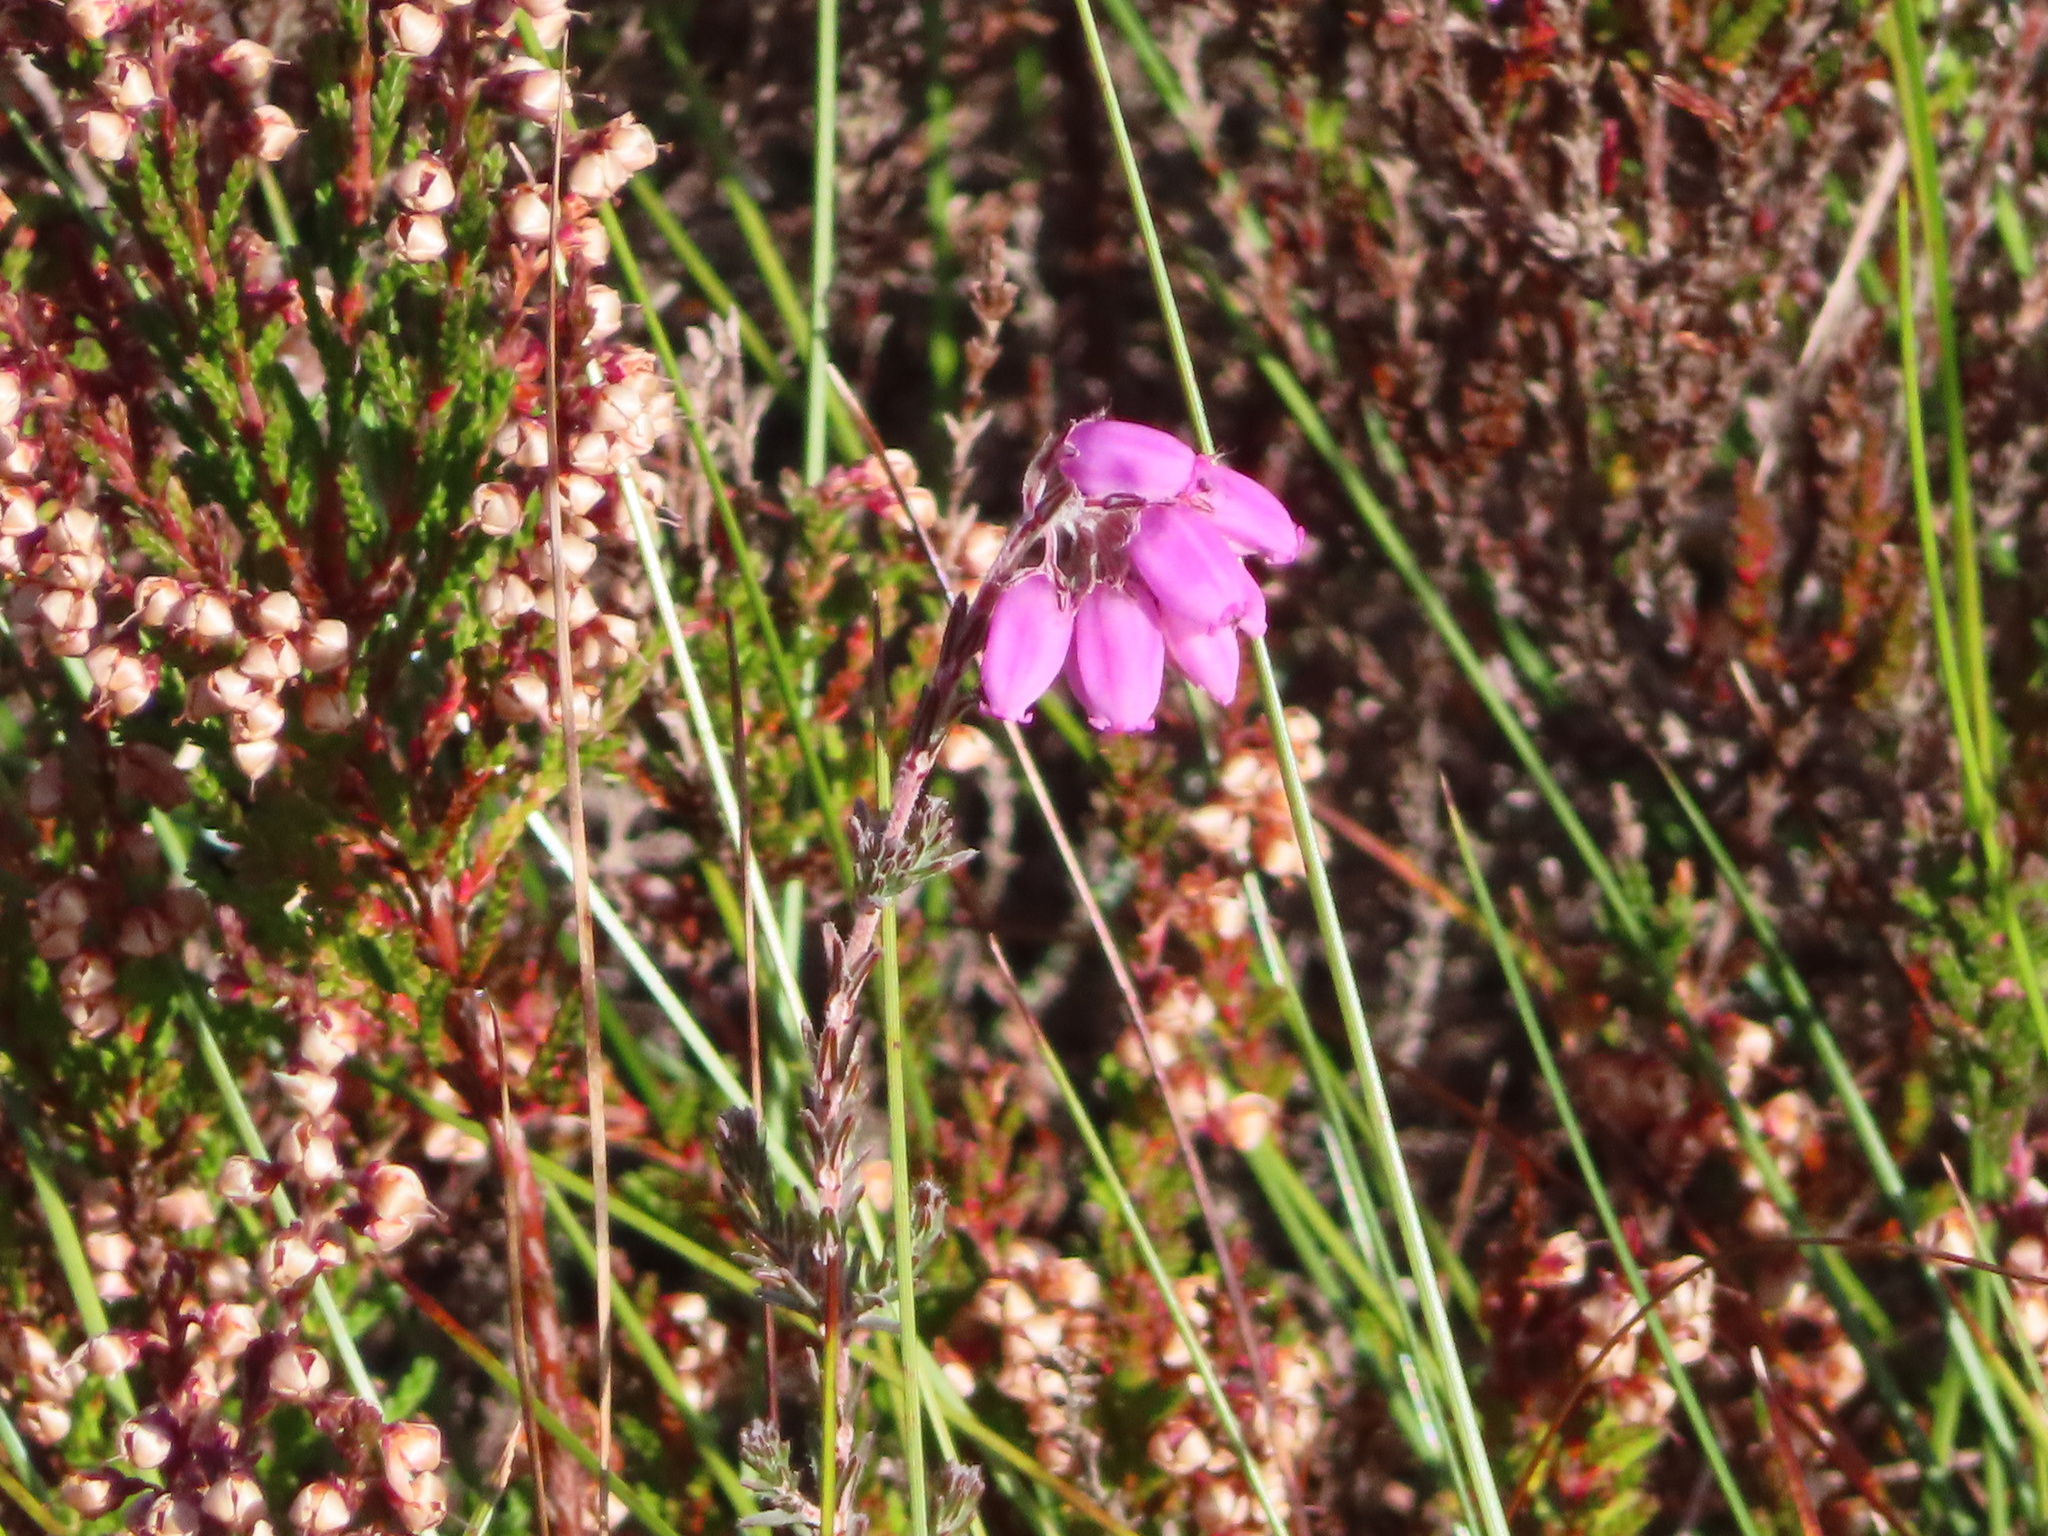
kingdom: Plantae
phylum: Tracheophyta
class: Magnoliopsida
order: Ericales
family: Ericaceae
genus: Erica
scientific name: Erica tetralix
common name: Cross-leaved heath
